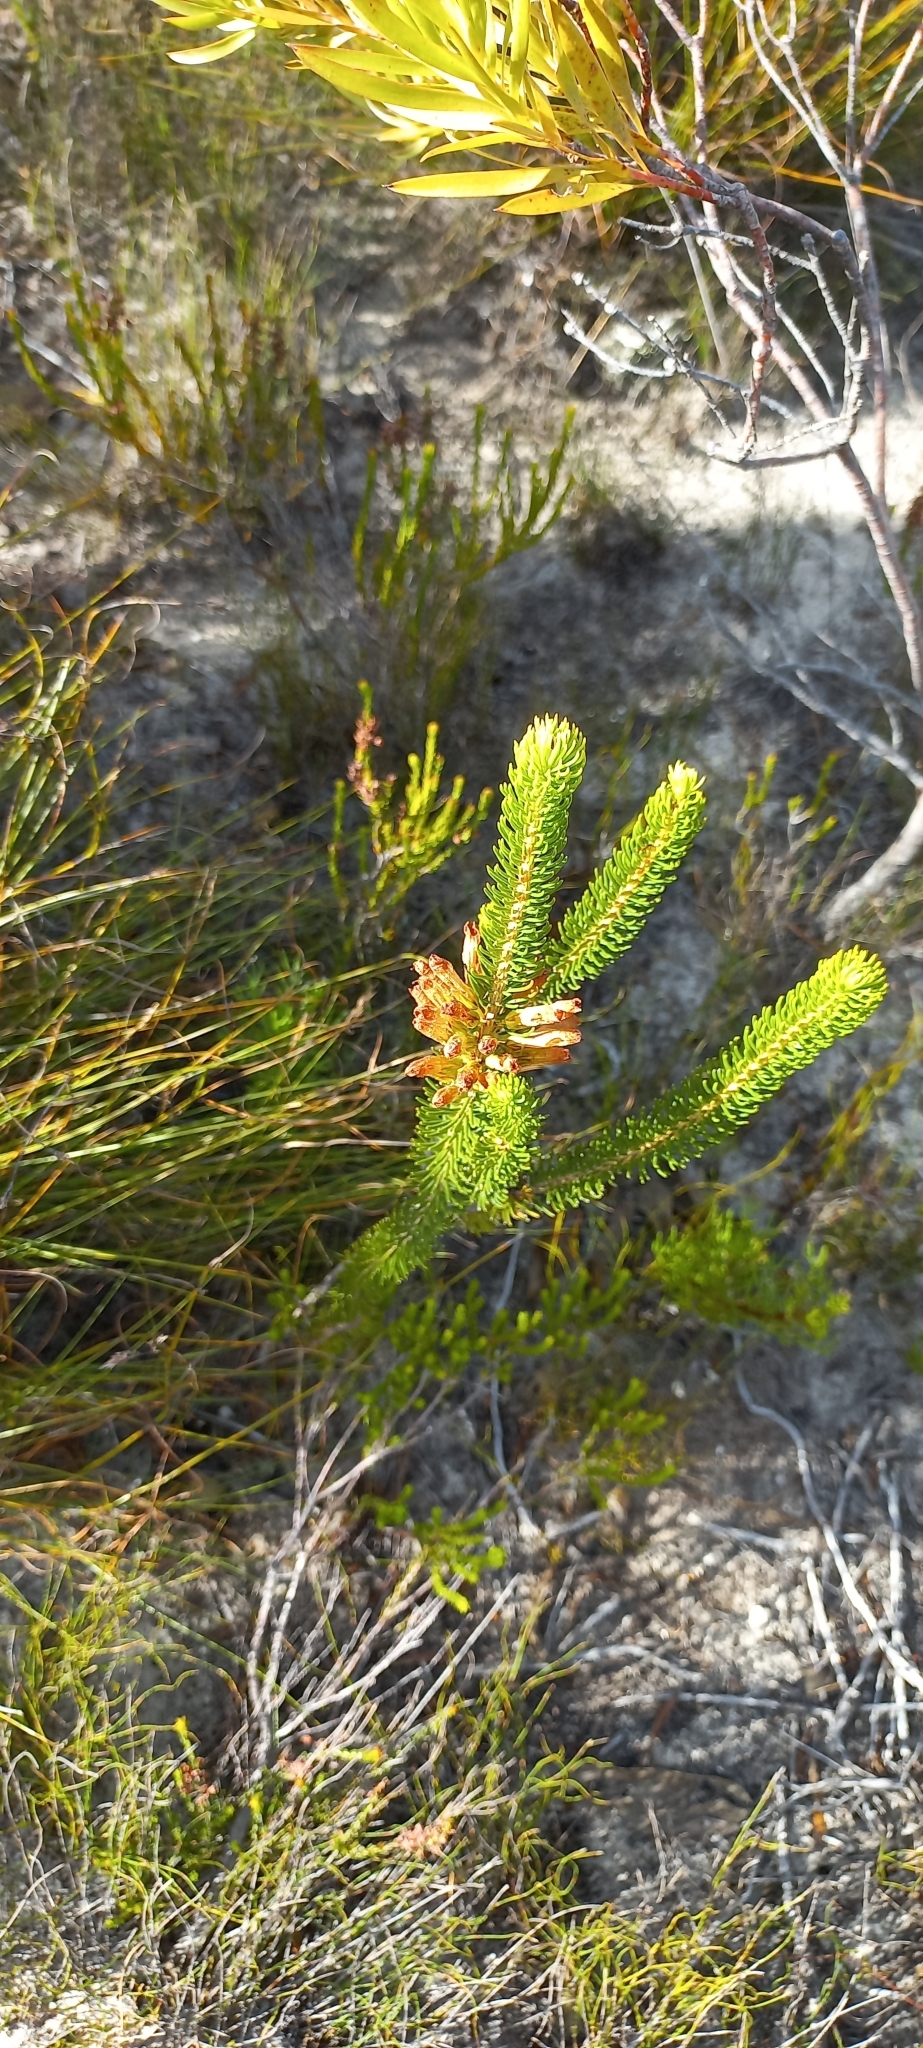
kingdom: Plantae
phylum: Tracheophyta
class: Magnoliopsida
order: Ericales
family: Ericaceae
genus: Erica
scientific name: Erica viscaria
